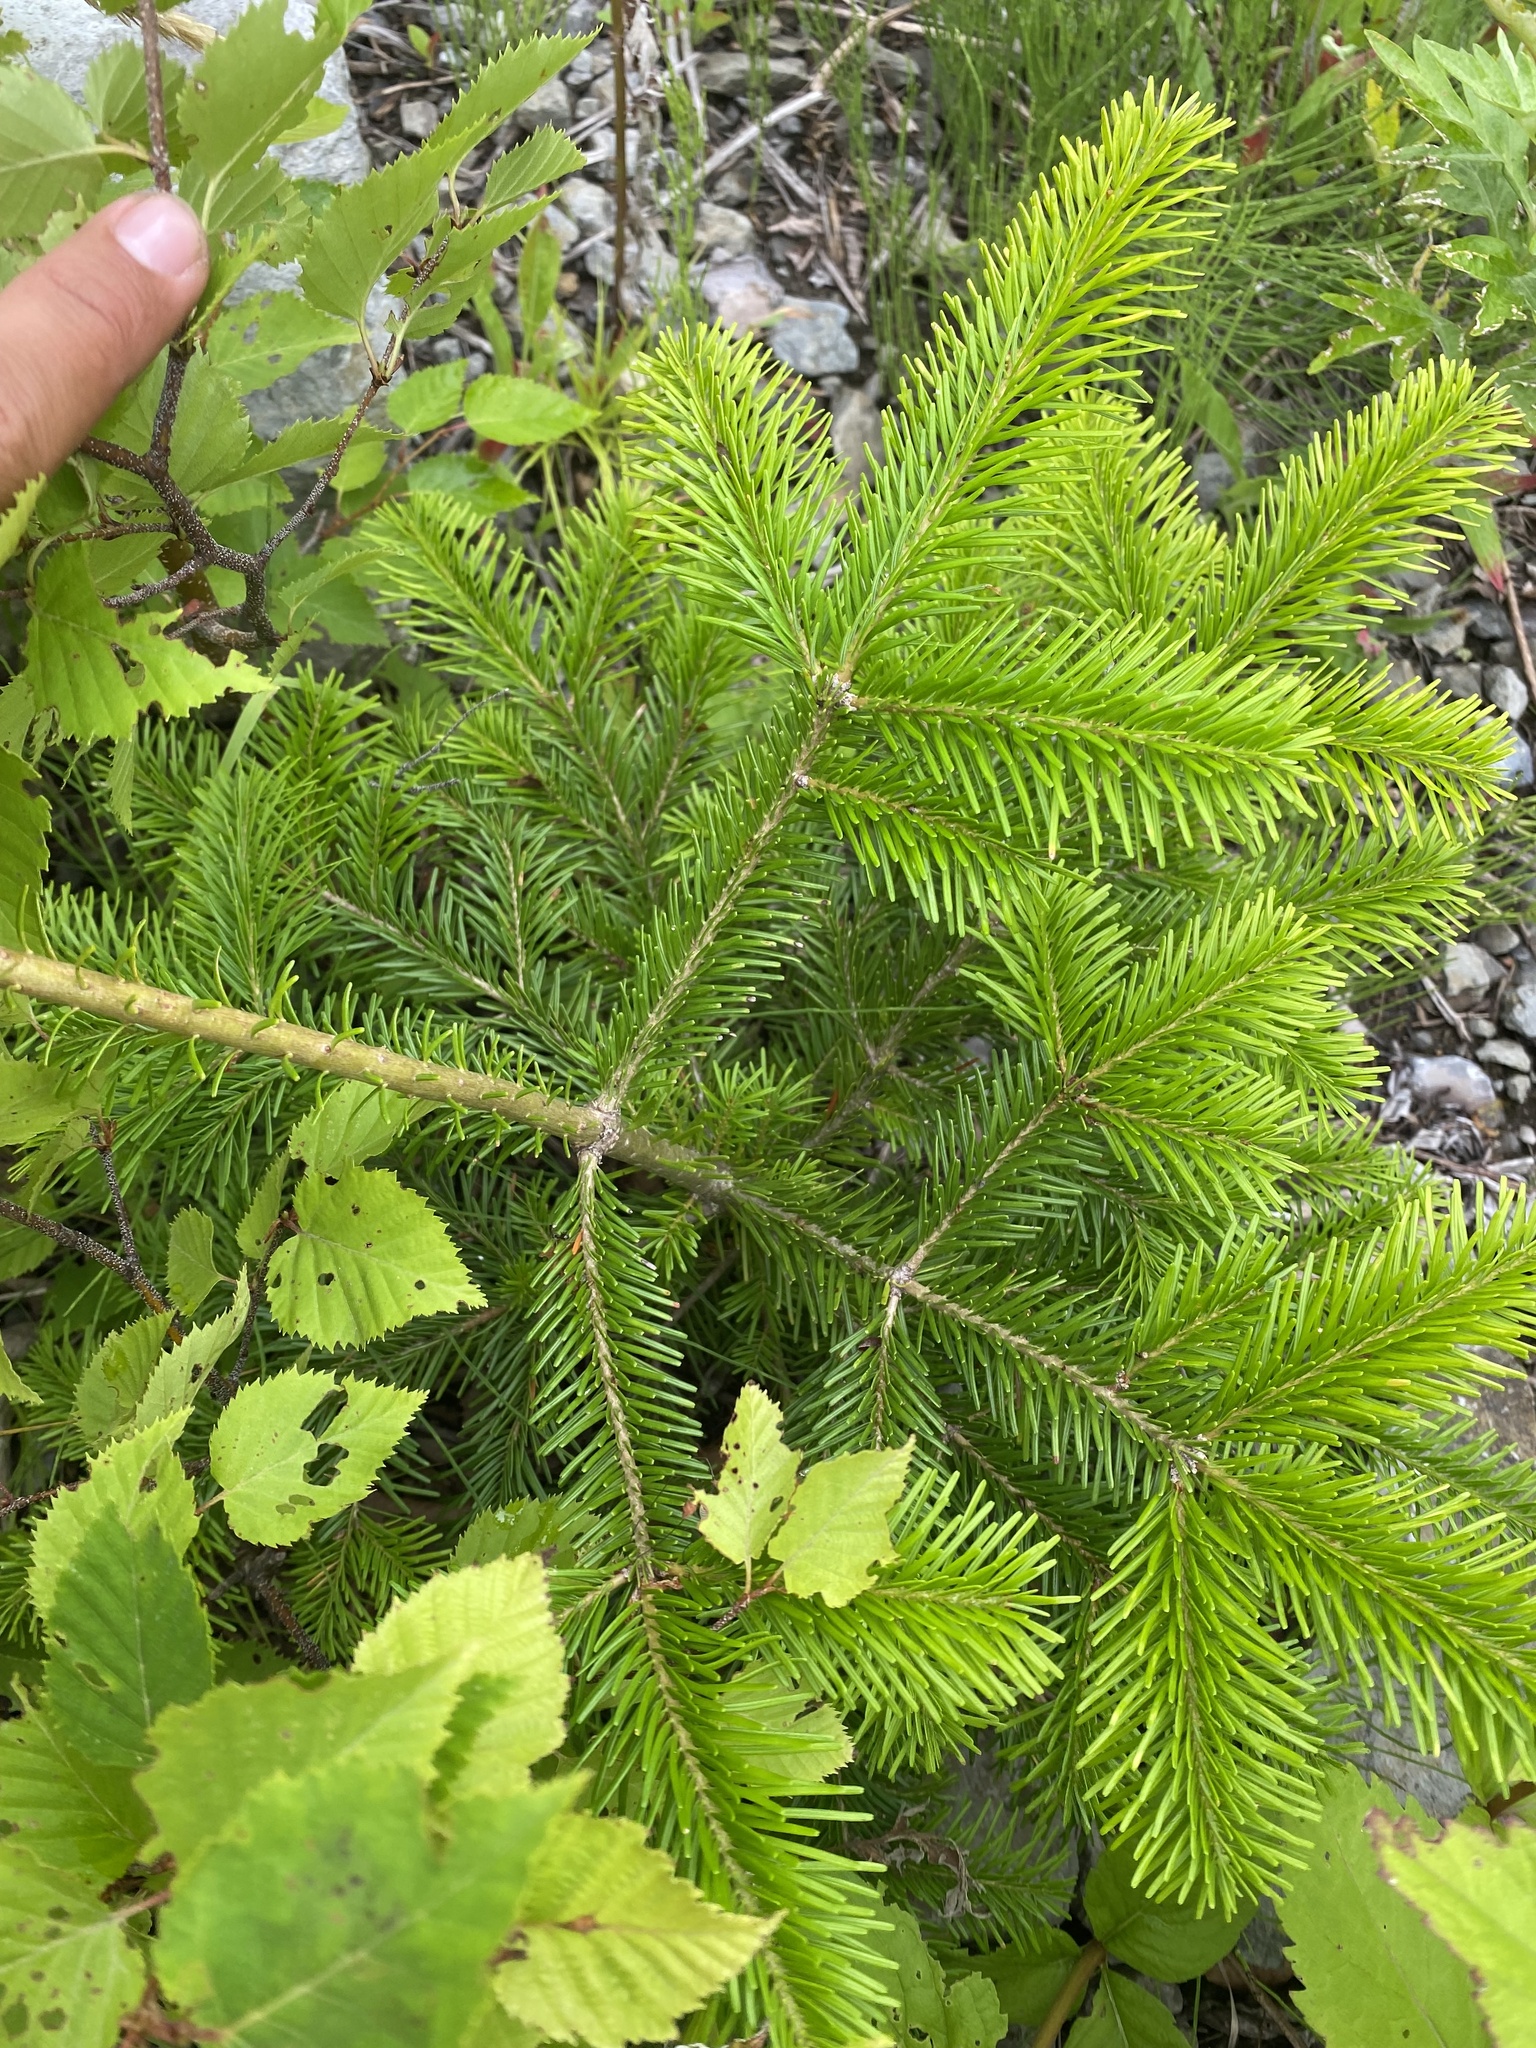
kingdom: Plantae
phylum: Tracheophyta
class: Pinopsida
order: Pinales
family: Pinaceae
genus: Abies
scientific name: Abies sachalinensis
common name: Sakhalin fir
